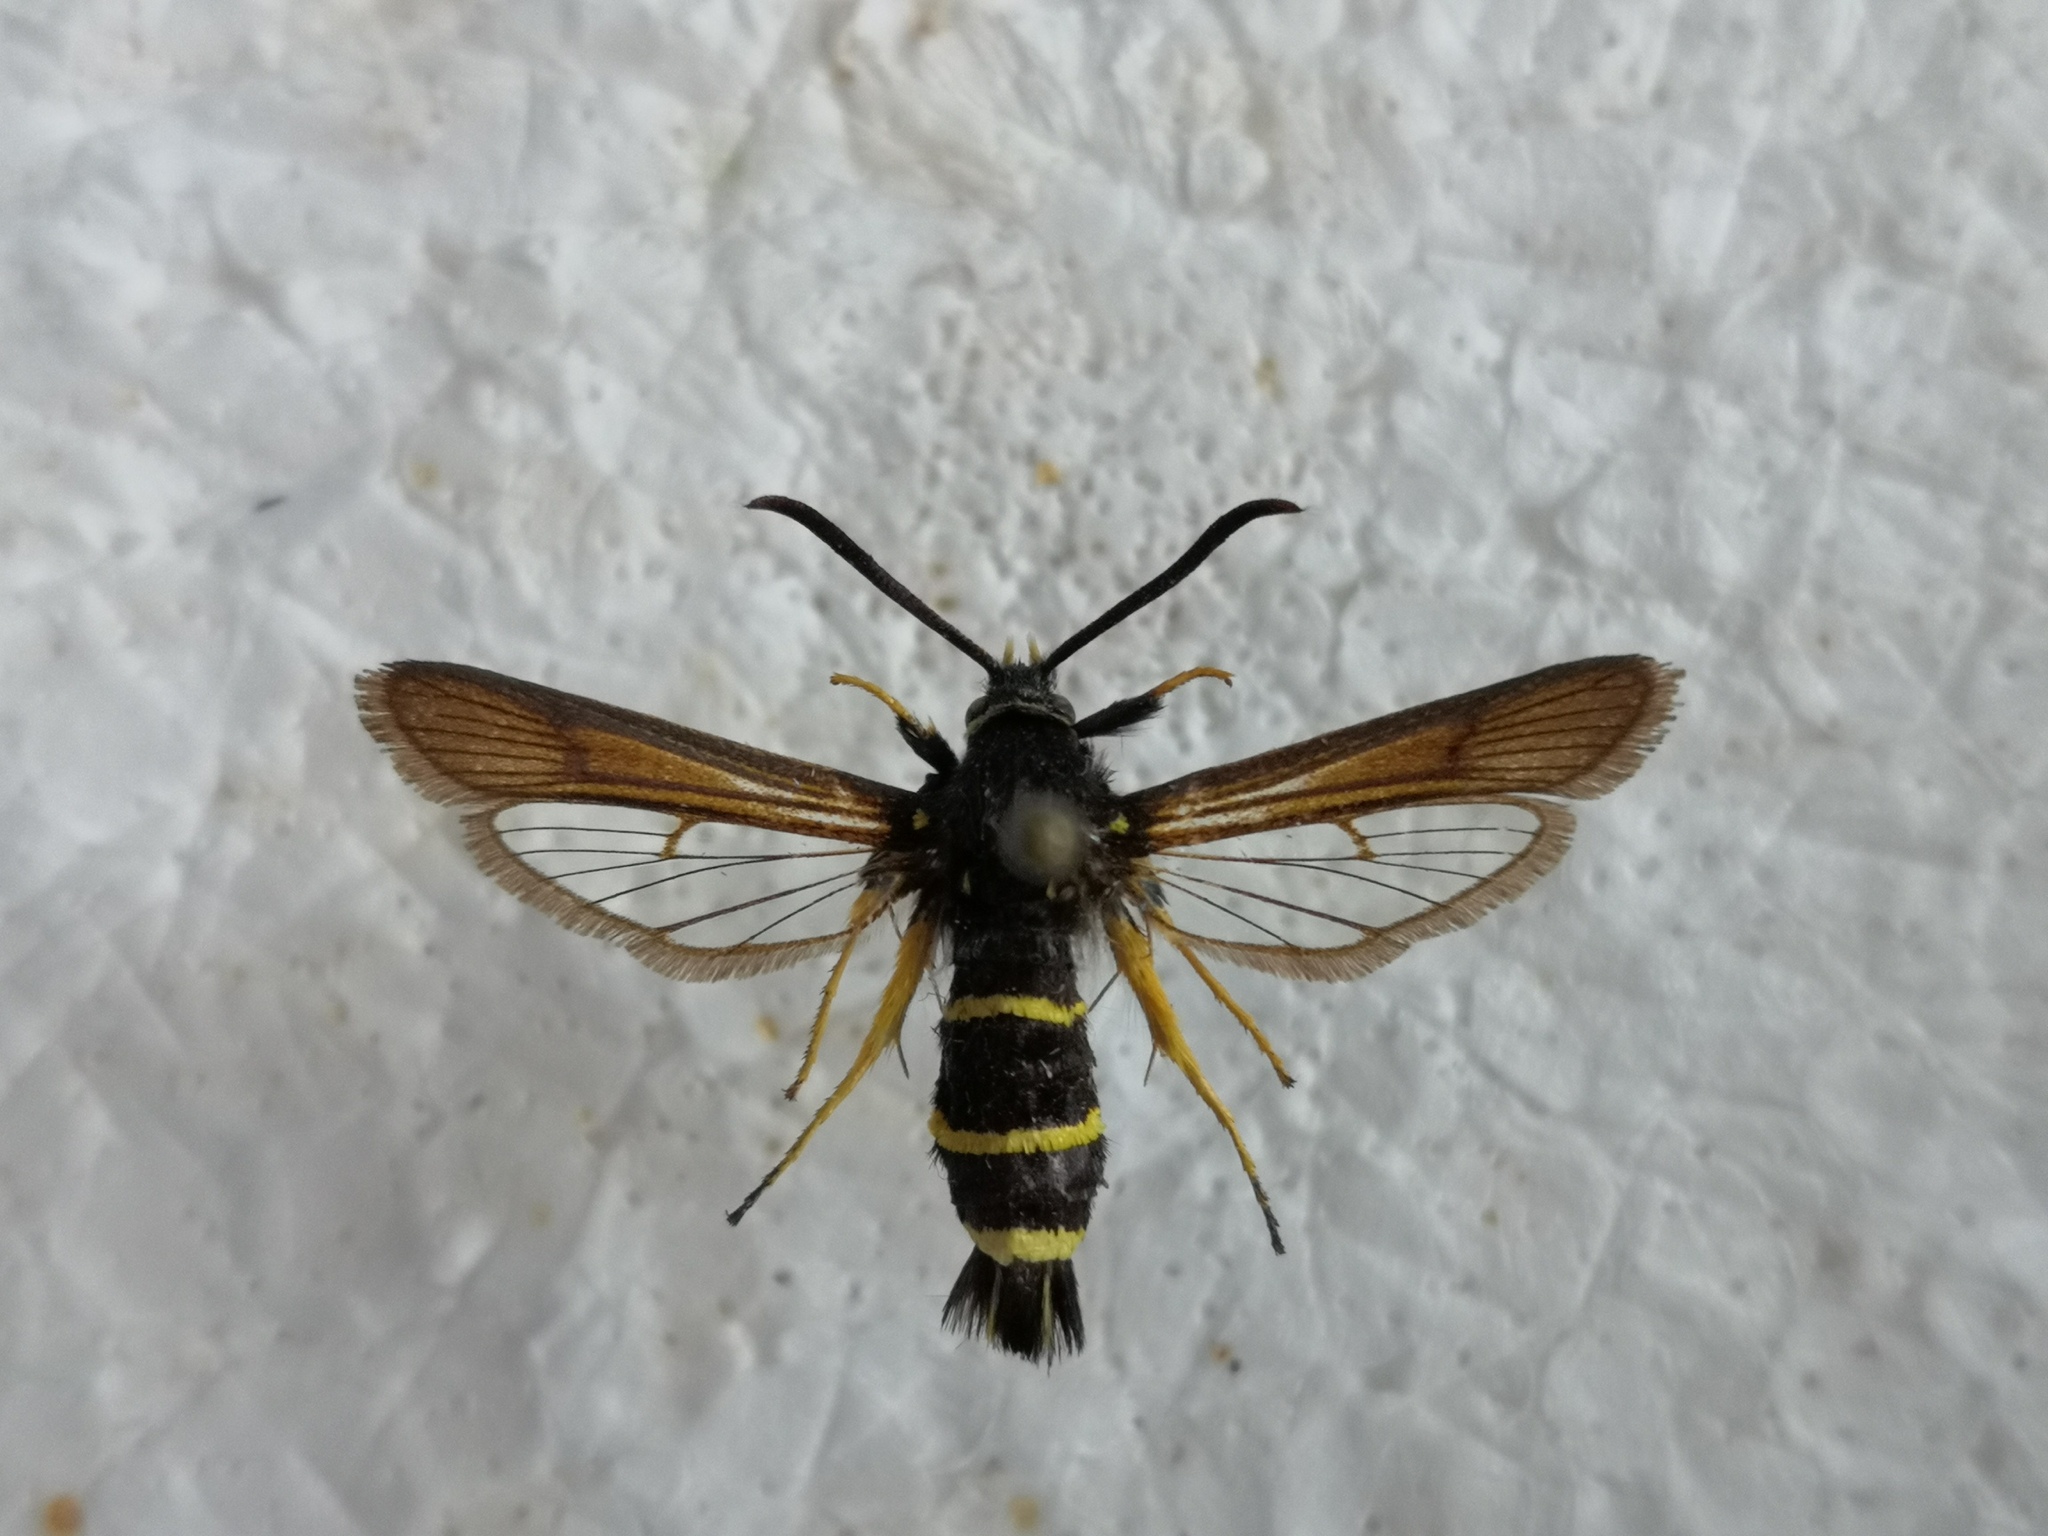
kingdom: Animalia
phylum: Arthropoda
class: Insecta
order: Lepidoptera
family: Sesiidae
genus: Paranthrene
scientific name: Paranthrene tabaniformis
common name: Dusky clearwing
